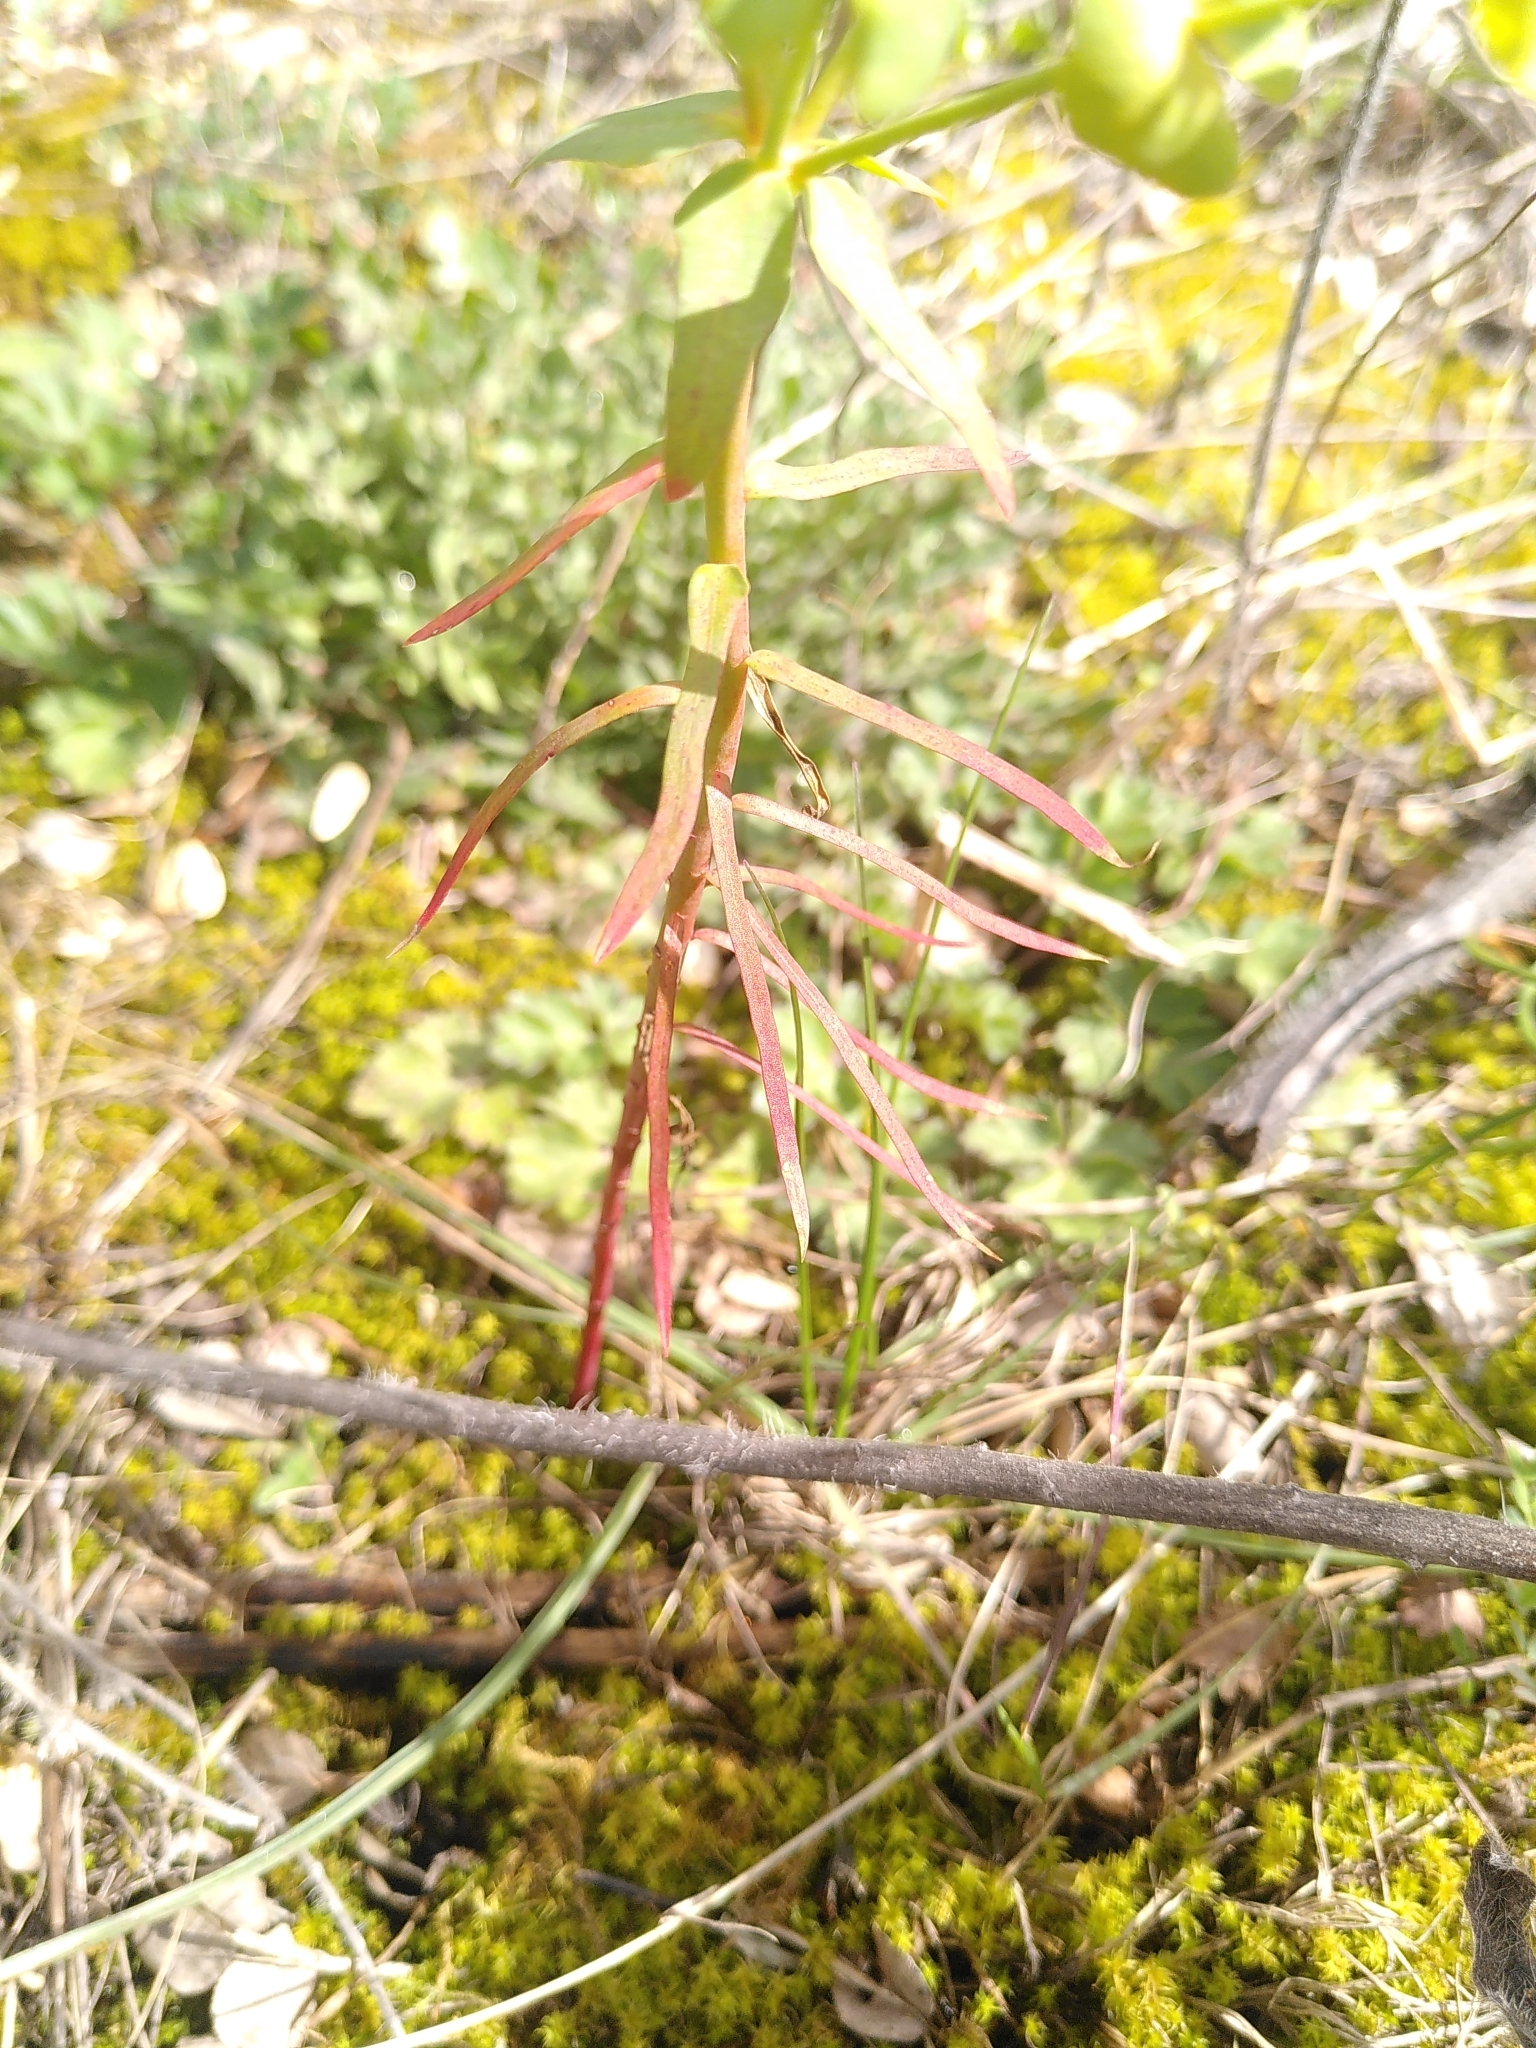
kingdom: Plantae
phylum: Tracheophyta
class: Magnoliopsida
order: Malpighiales
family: Euphorbiaceae
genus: Euphorbia
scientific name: Euphorbia segetalis
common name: Corn spurge
